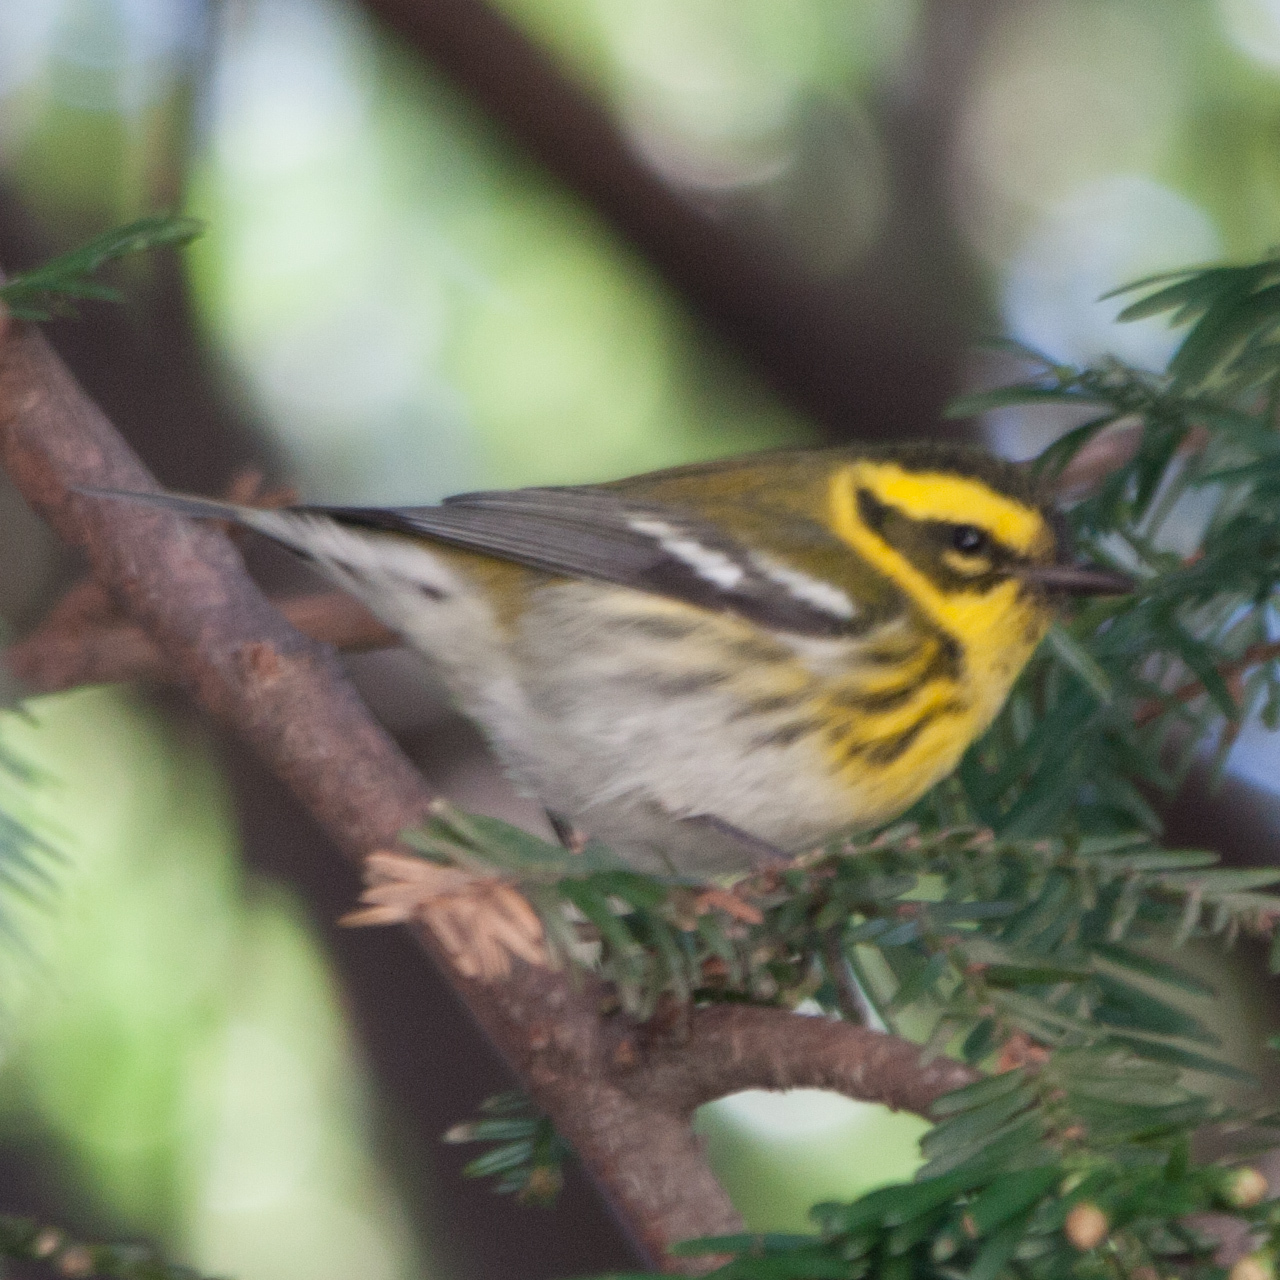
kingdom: Animalia
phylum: Chordata
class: Aves
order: Passeriformes
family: Parulidae
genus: Setophaga
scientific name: Setophaga townsendi
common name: Townsend's warbler
